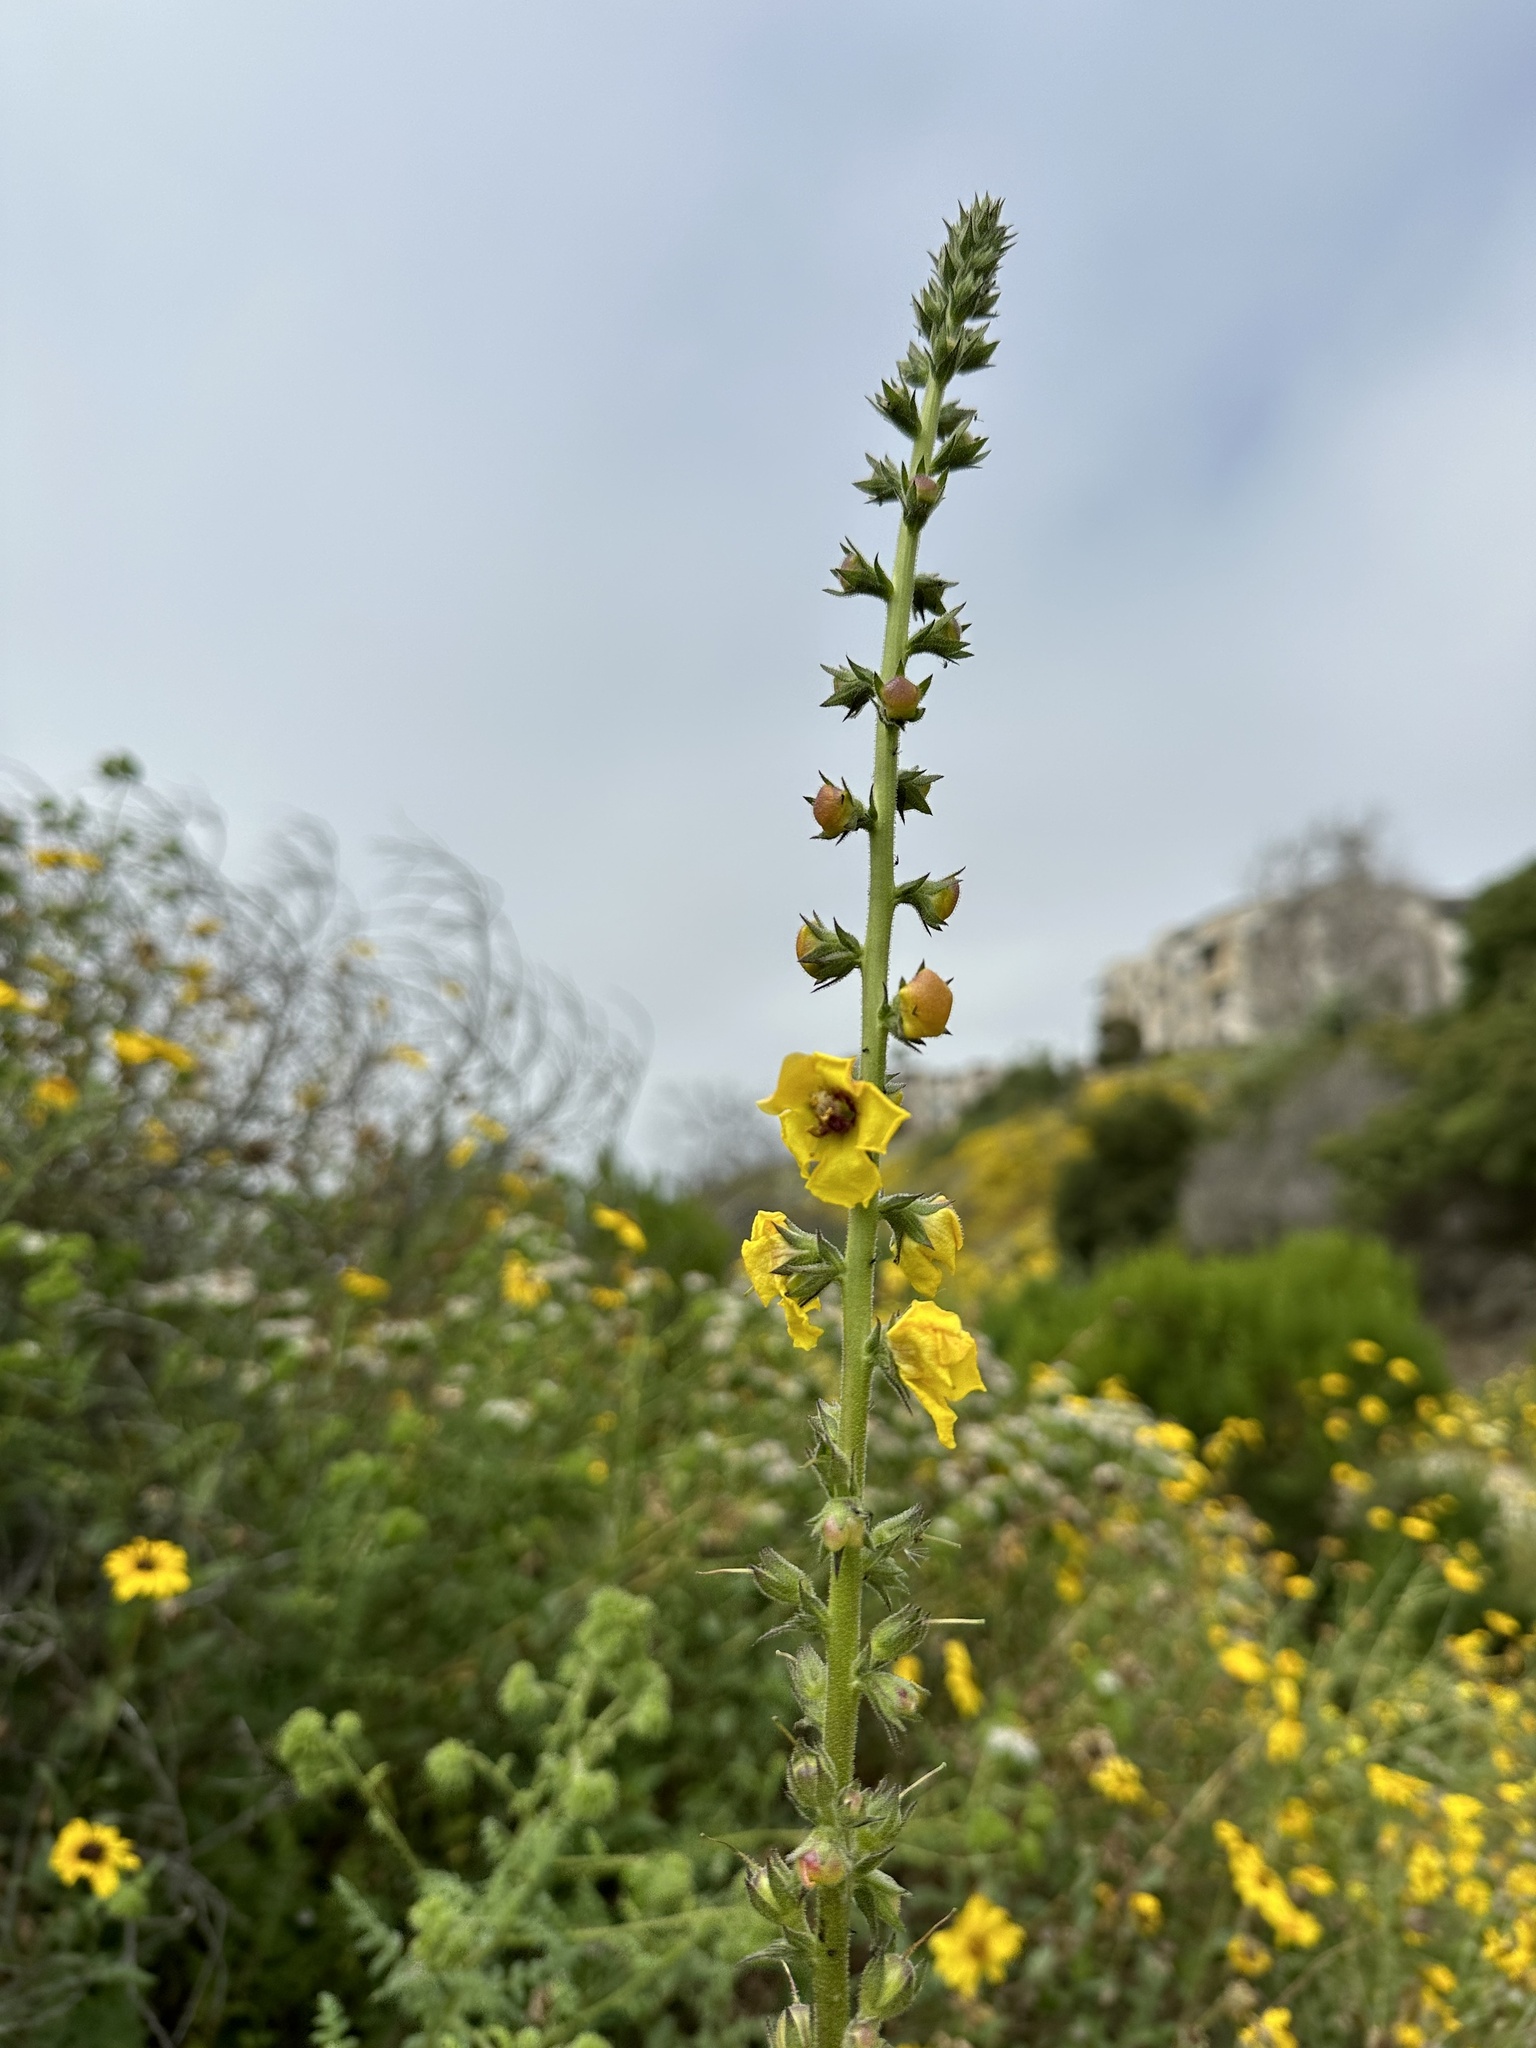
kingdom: Plantae
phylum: Tracheophyta
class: Magnoliopsida
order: Lamiales
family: Scrophulariaceae
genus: Verbascum
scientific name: Verbascum virgatum
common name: Twiggy mullein
